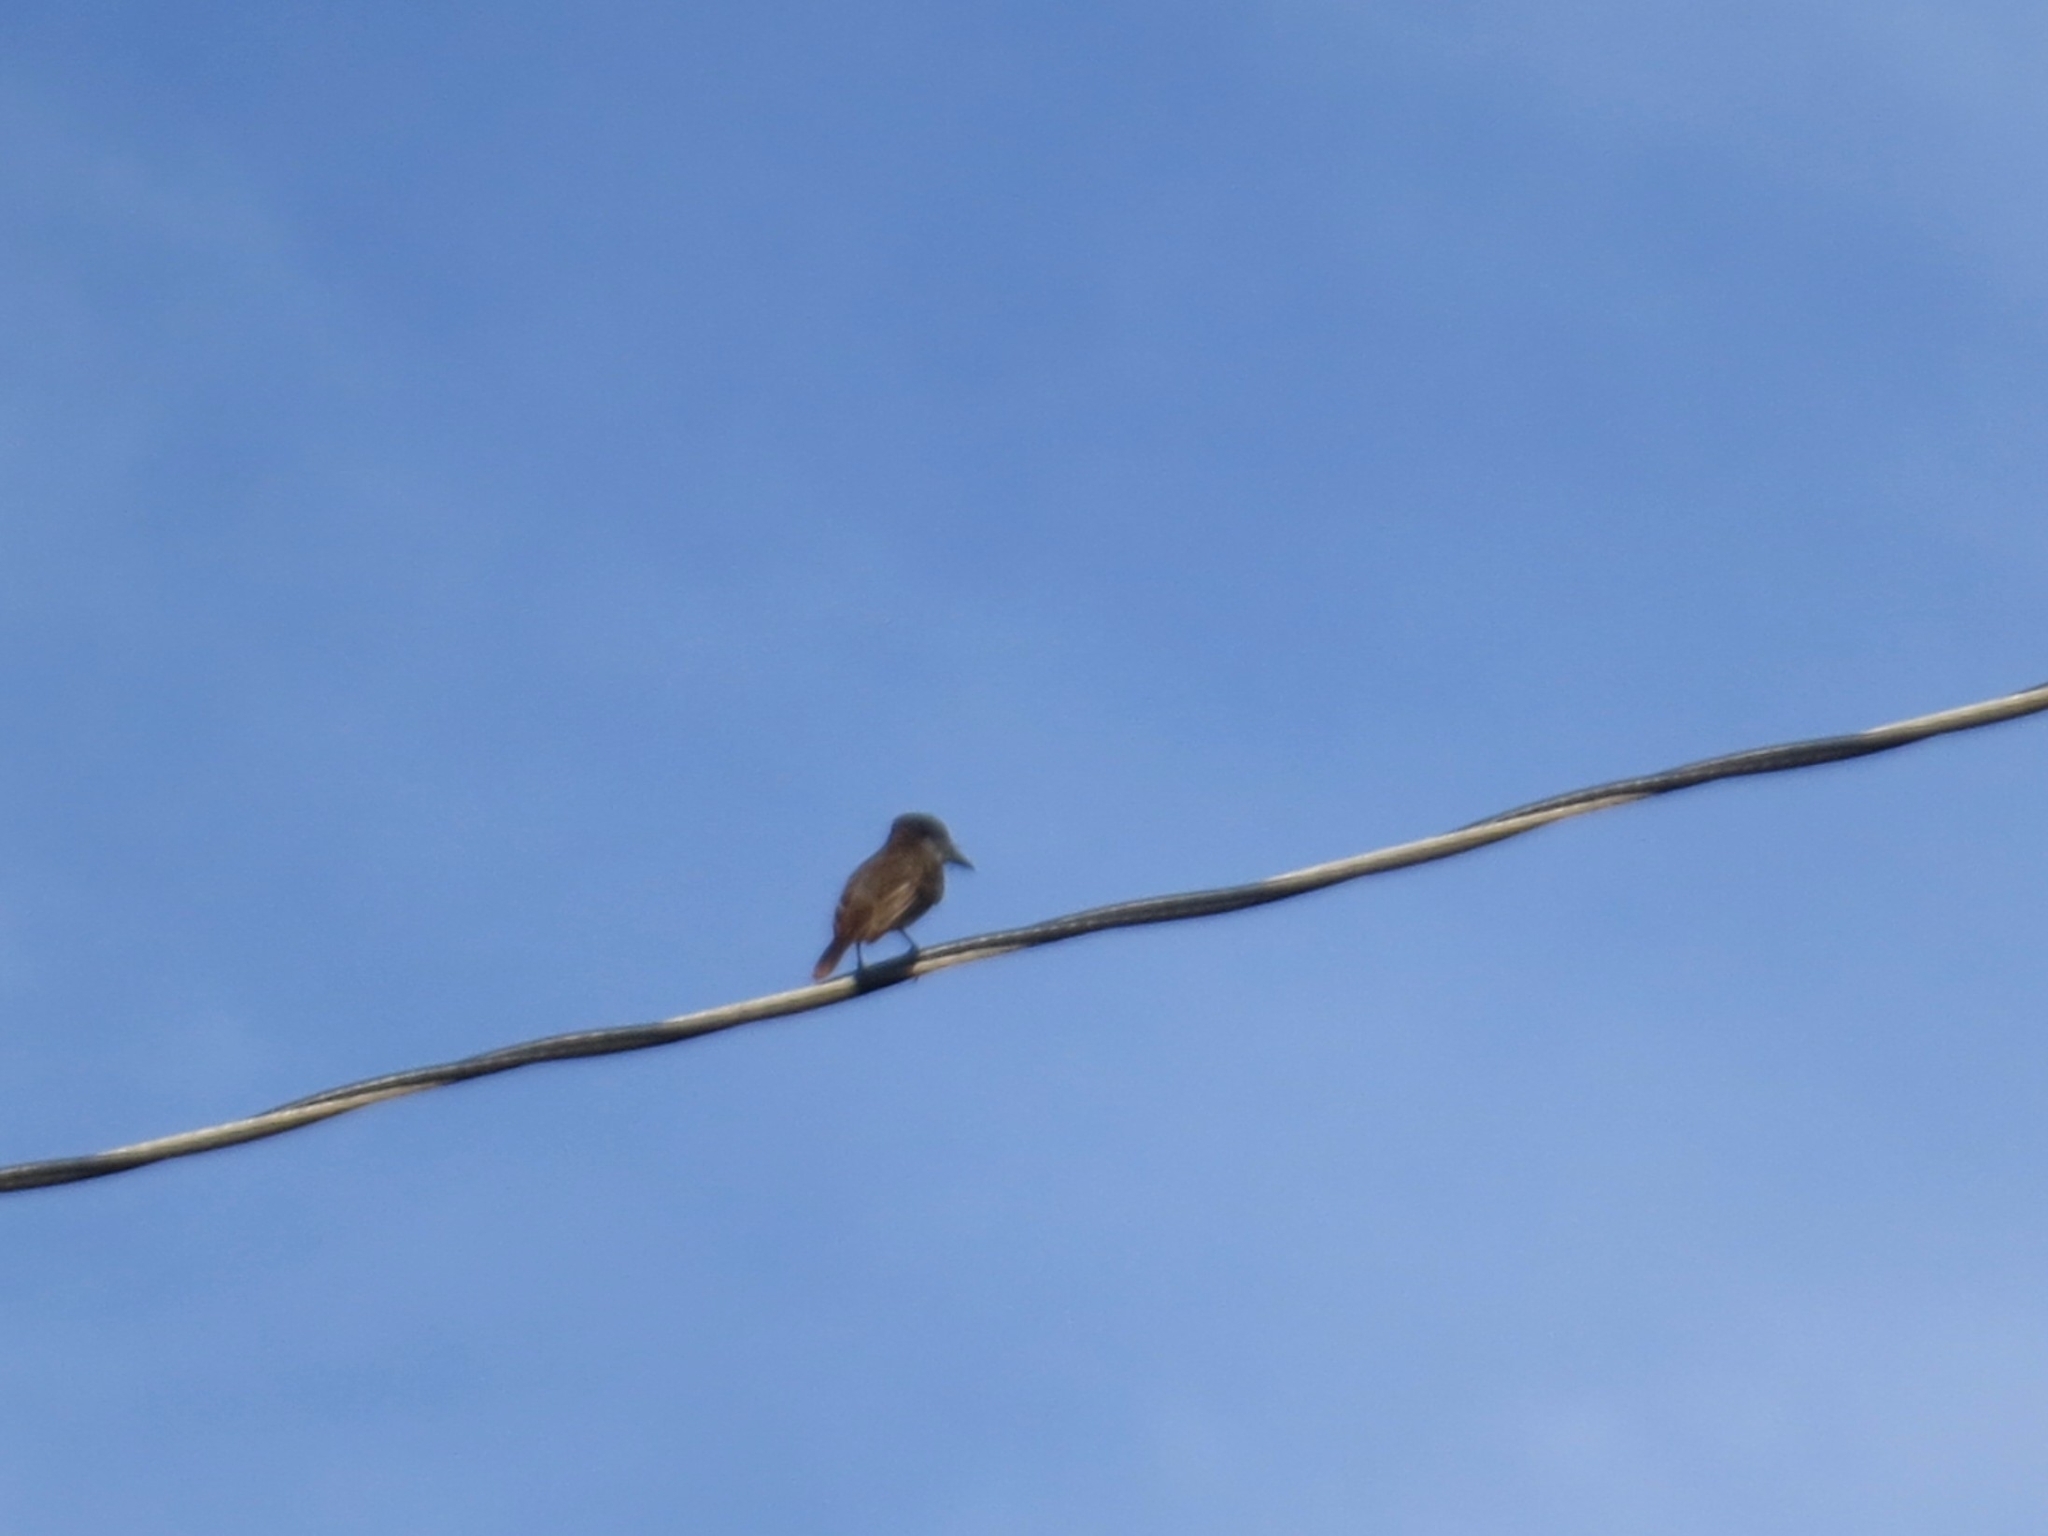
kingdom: Animalia
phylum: Chordata
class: Aves
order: Passeriformes
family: Tyrannidae
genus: Tyrannus
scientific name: Tyrannus caudifasciatus
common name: Loggerhead kingbird
